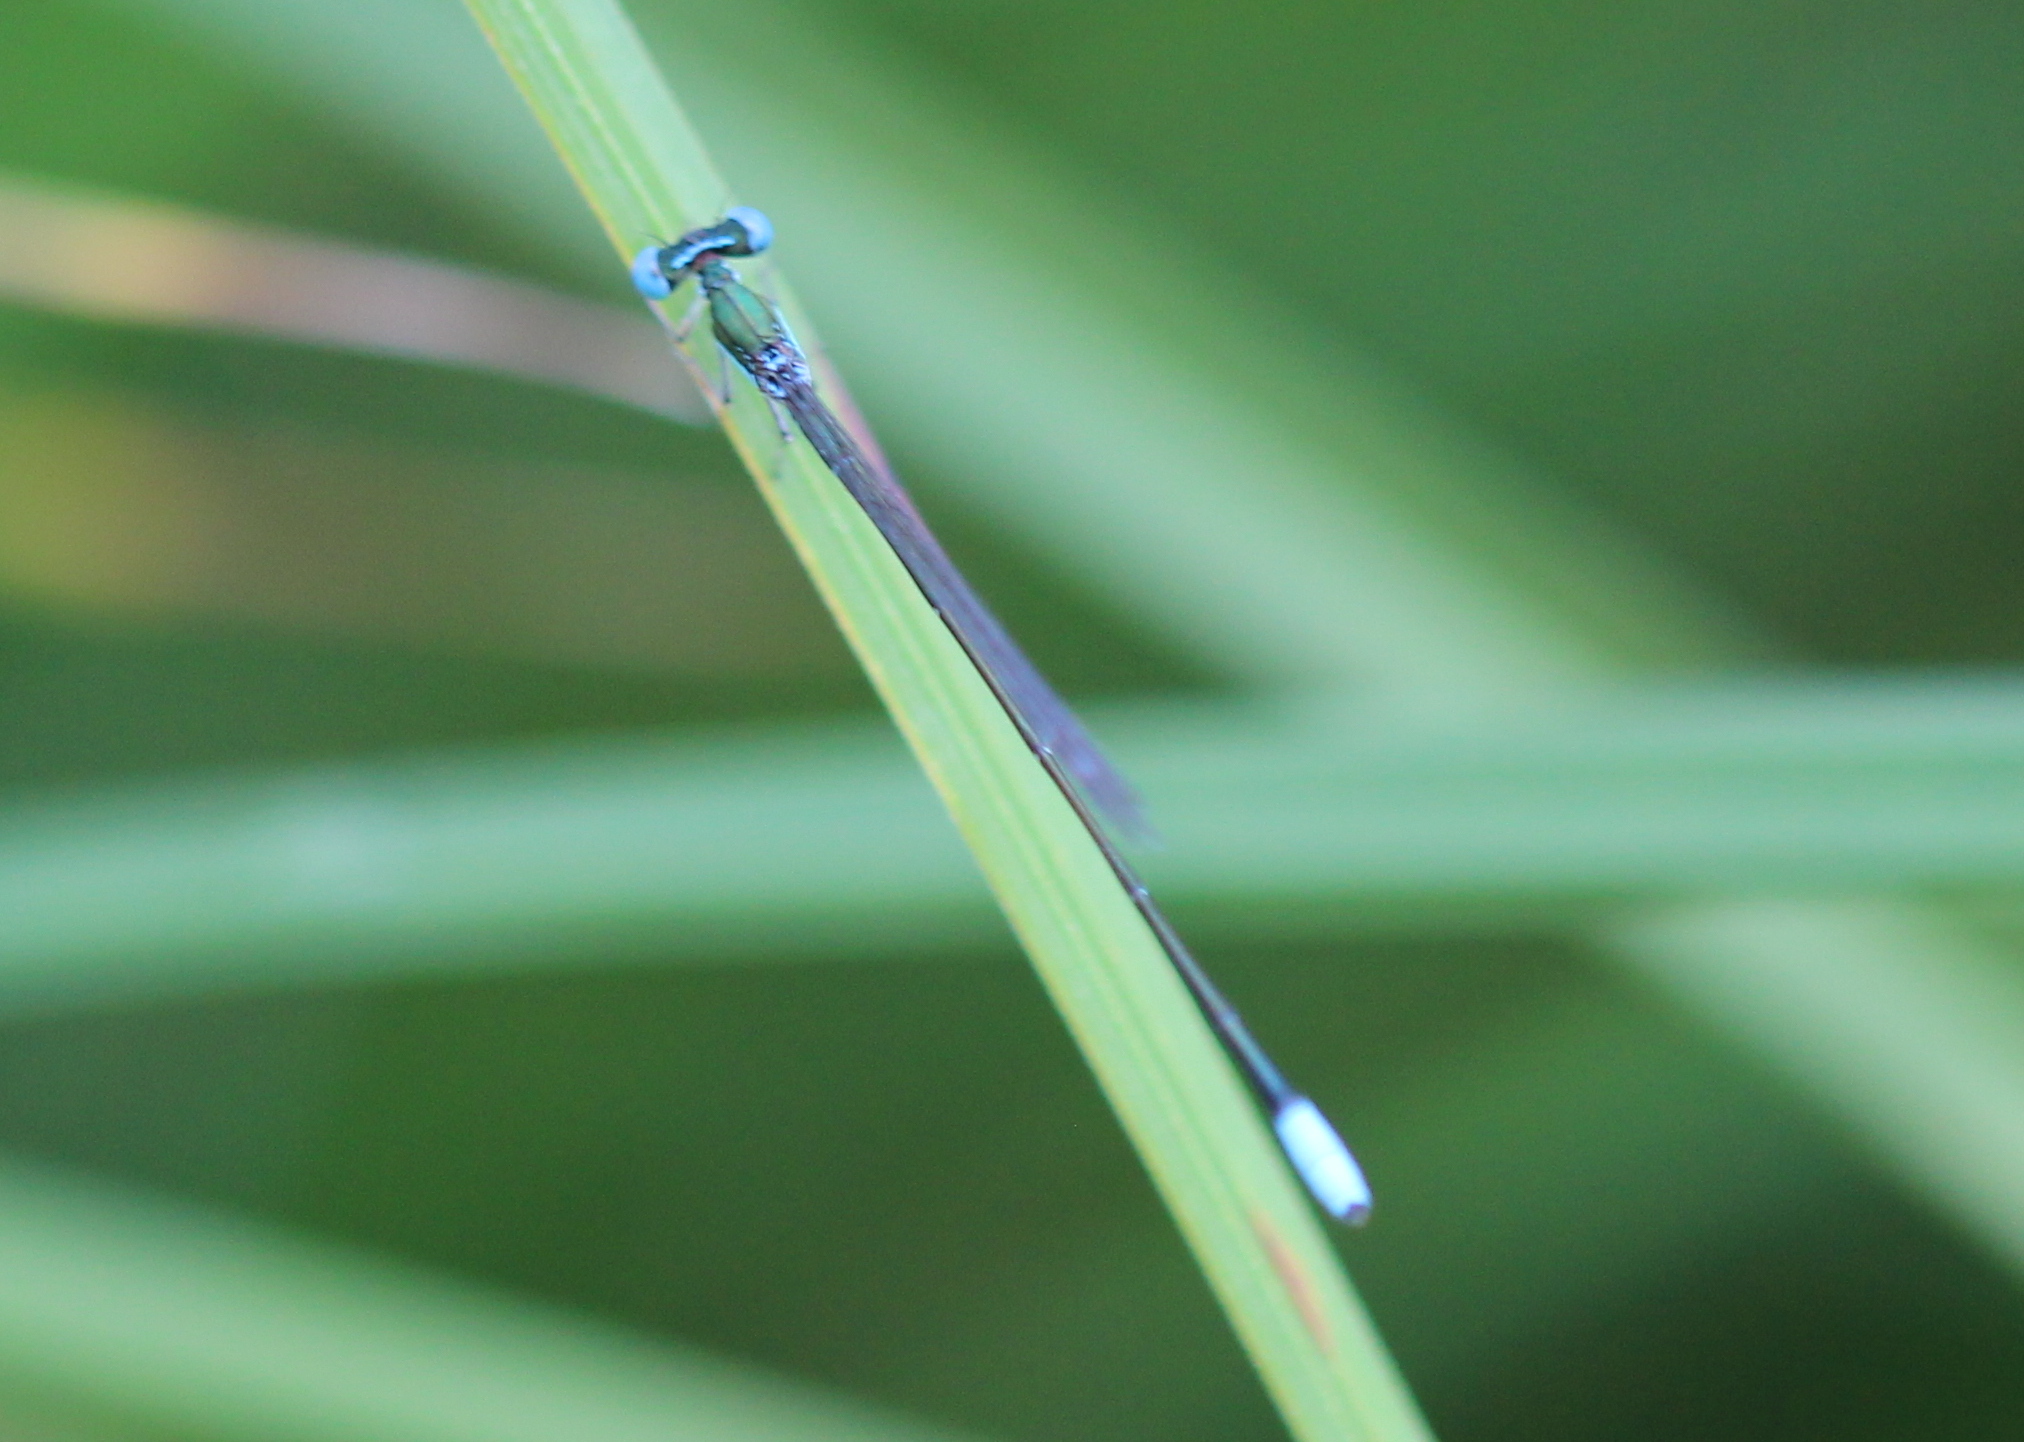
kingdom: Animalia
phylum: Arthropoda
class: Insecta
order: Odonata
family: Coenagrionidae
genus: Nehalennia
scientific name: Nehalennia gracilis
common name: Sphagnum sprite
